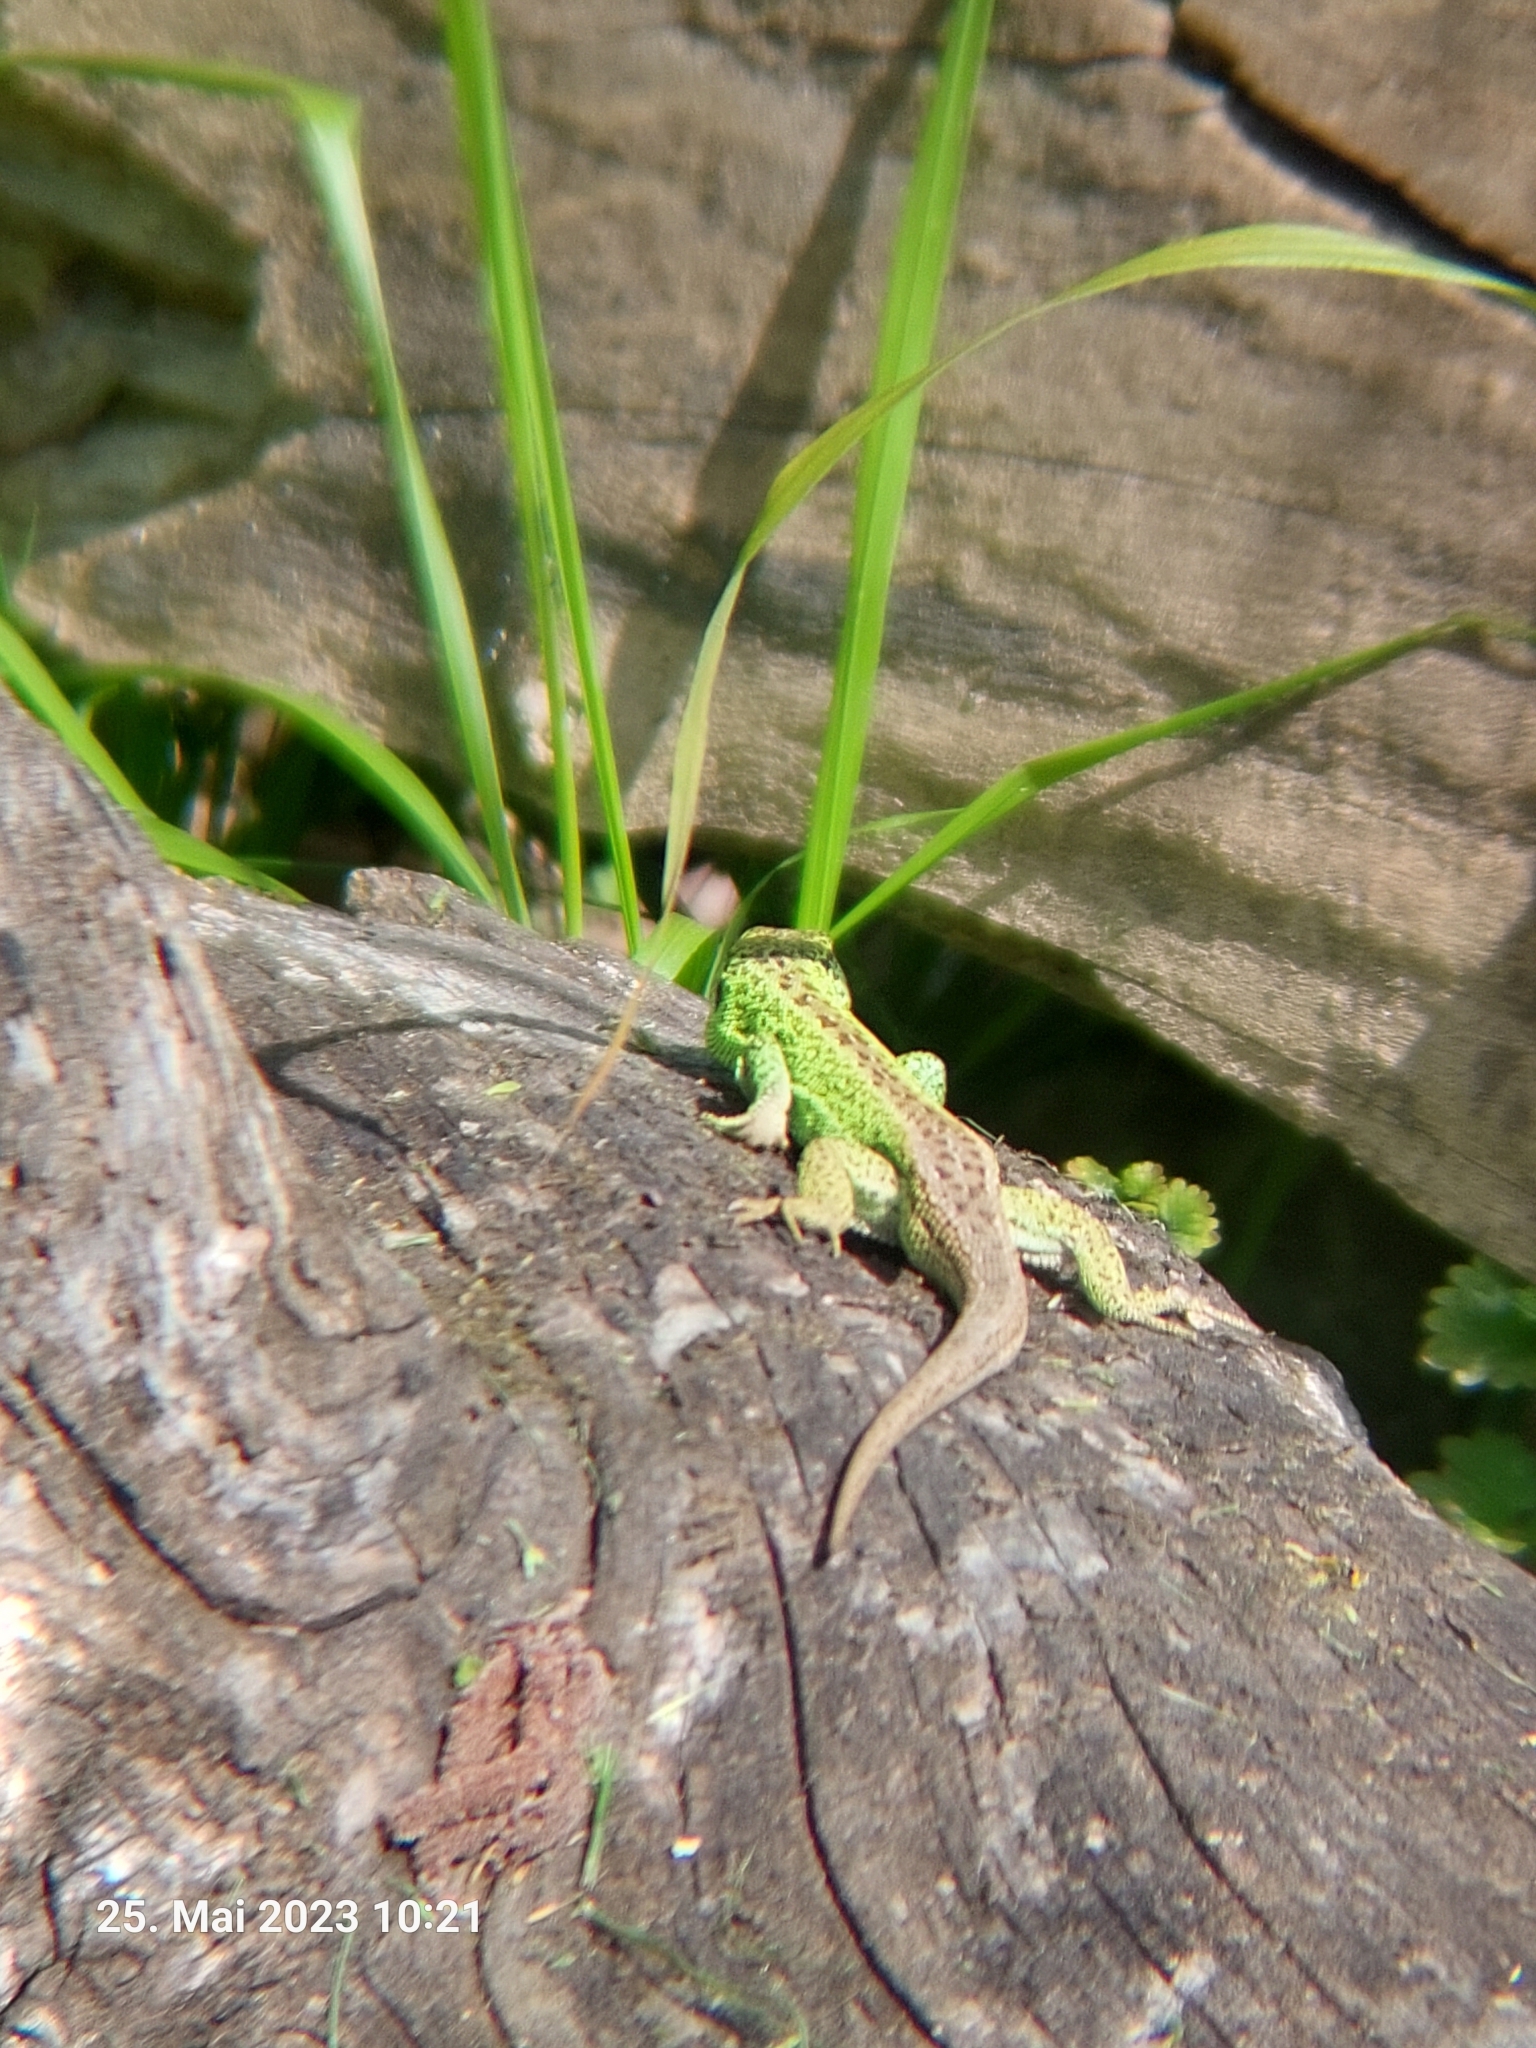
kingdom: Animalia
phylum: Chordata
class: Squamata
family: Lacertidae
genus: Lacerta
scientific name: Lacerta agilis
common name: Sand lizard
